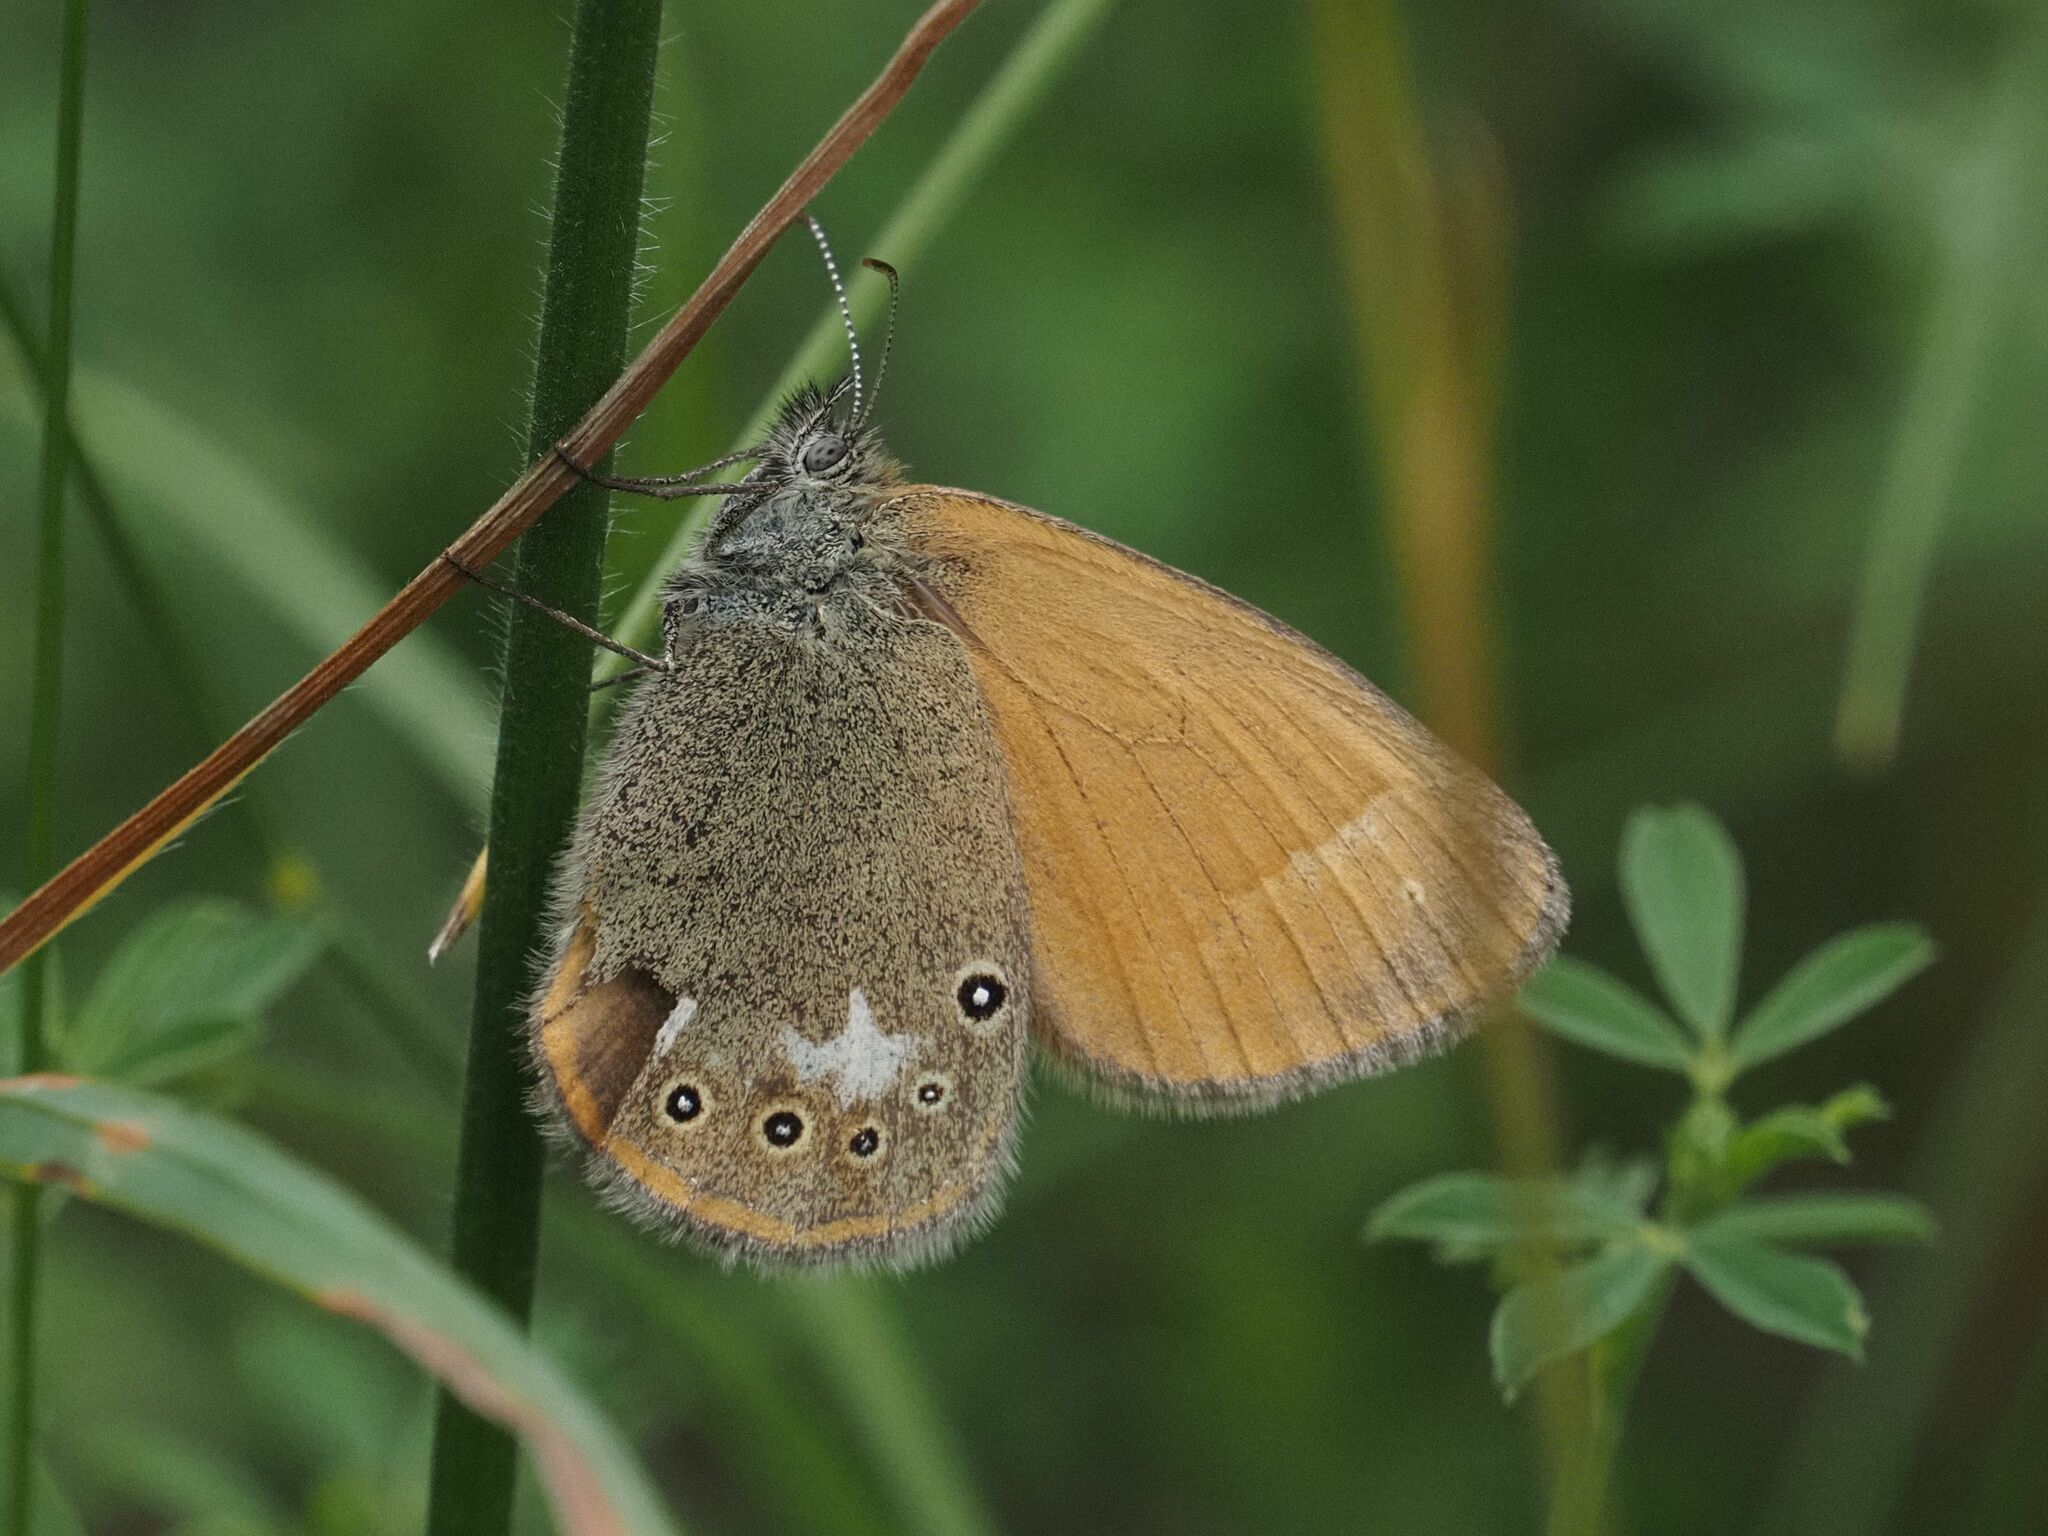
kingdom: Animalia
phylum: Arthropoda
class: Insecta
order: Lepidoptera
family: Nymphalidae
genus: Coenonympha
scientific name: Coenonympha iphis
